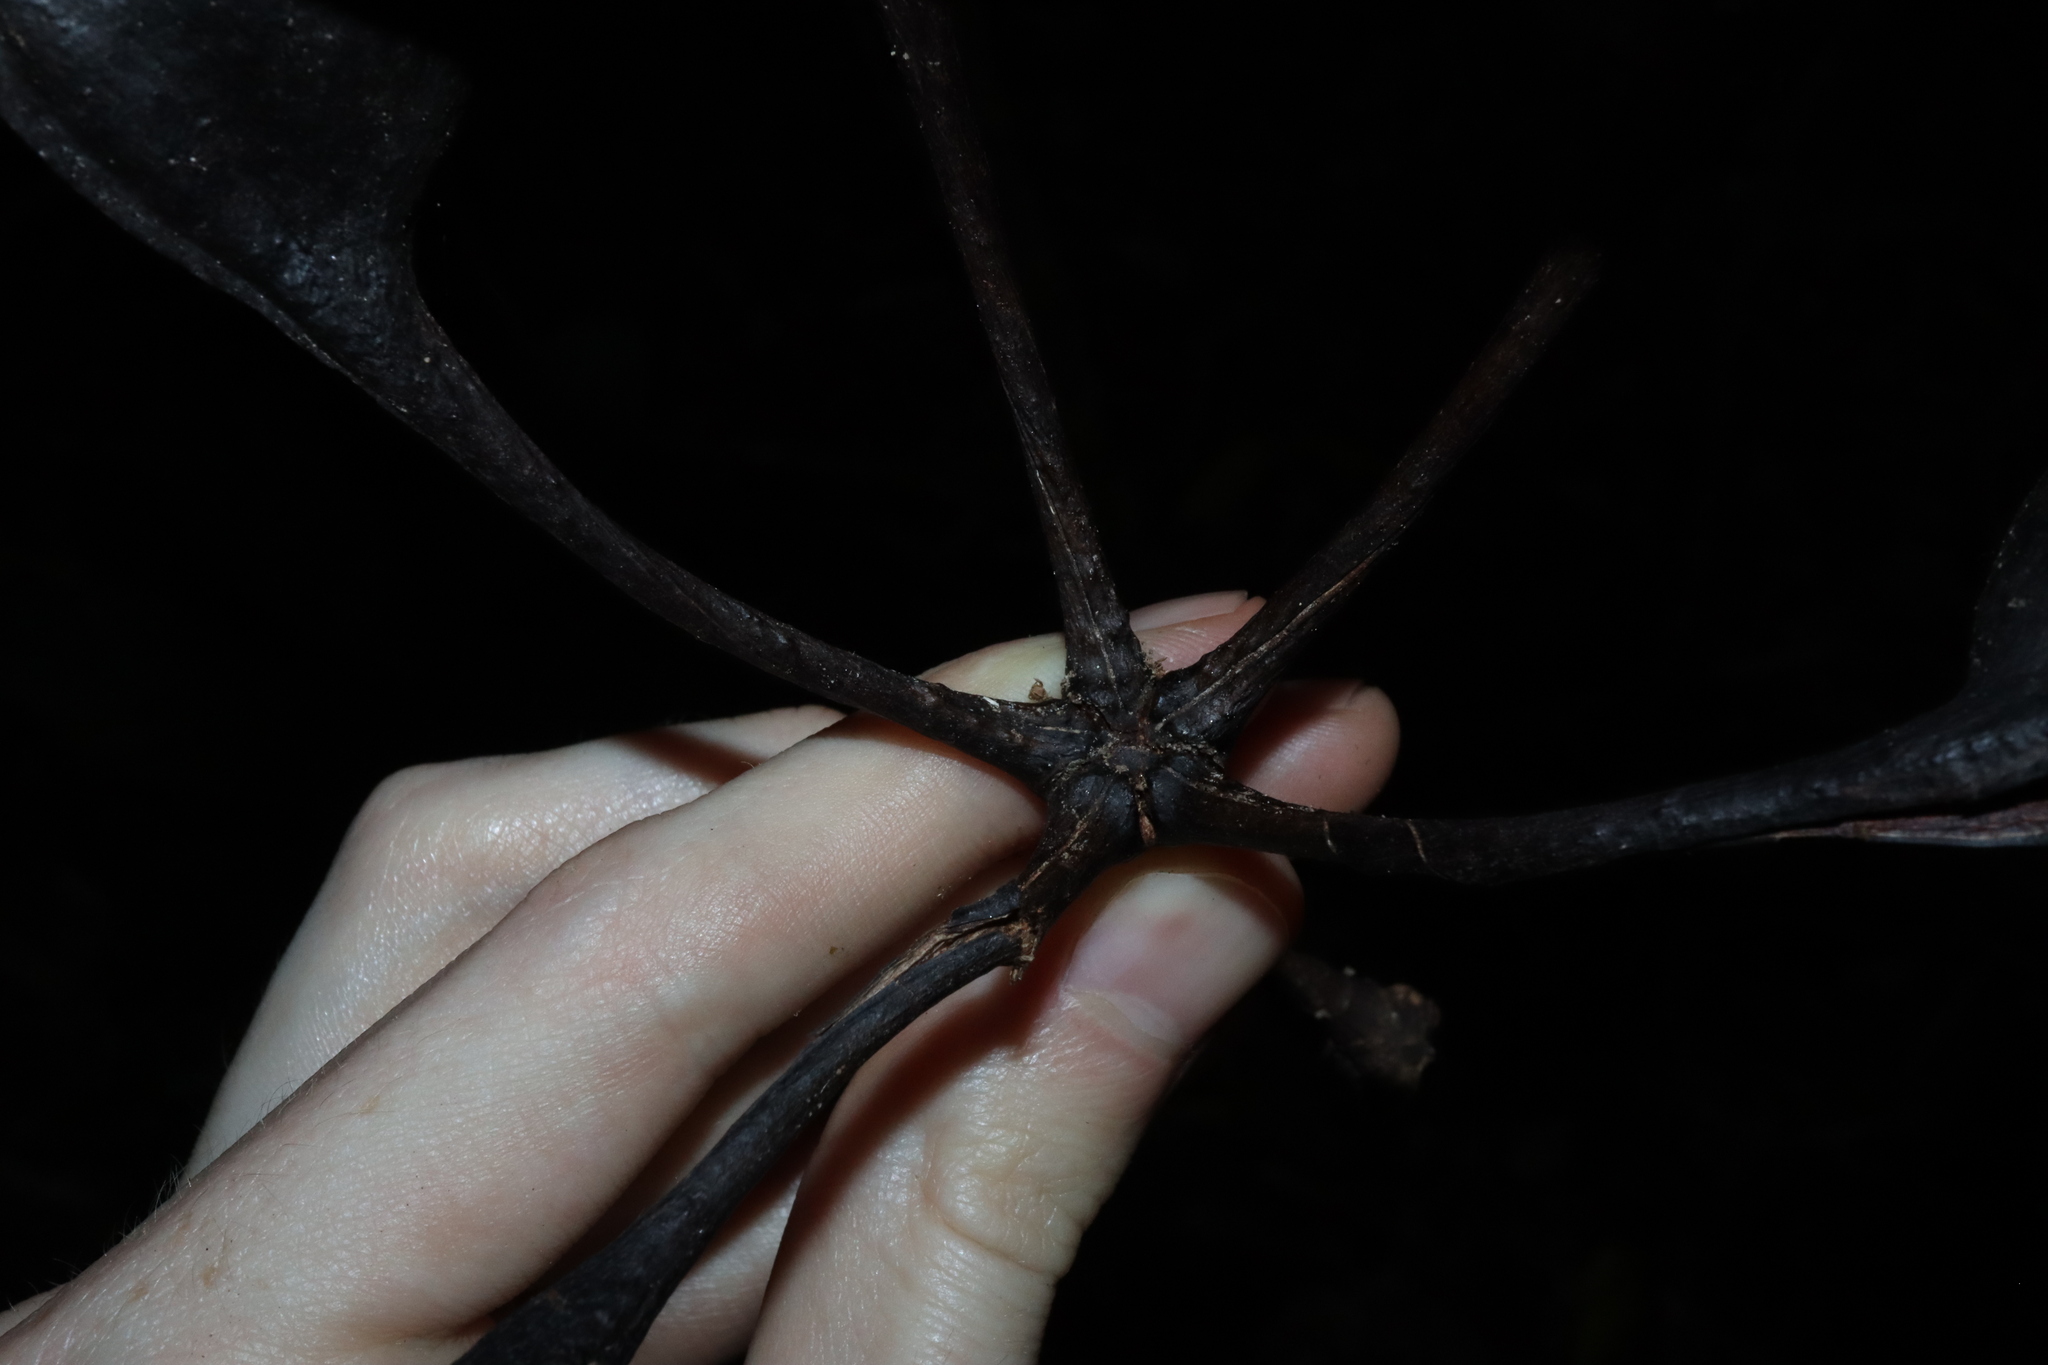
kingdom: Plantae
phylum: Tracheophyta
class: Magnoliopsida
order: Malvales
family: Malvaceae
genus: Brachychiton
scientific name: Brachychiton acerifolius
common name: Illawarra flame tree
